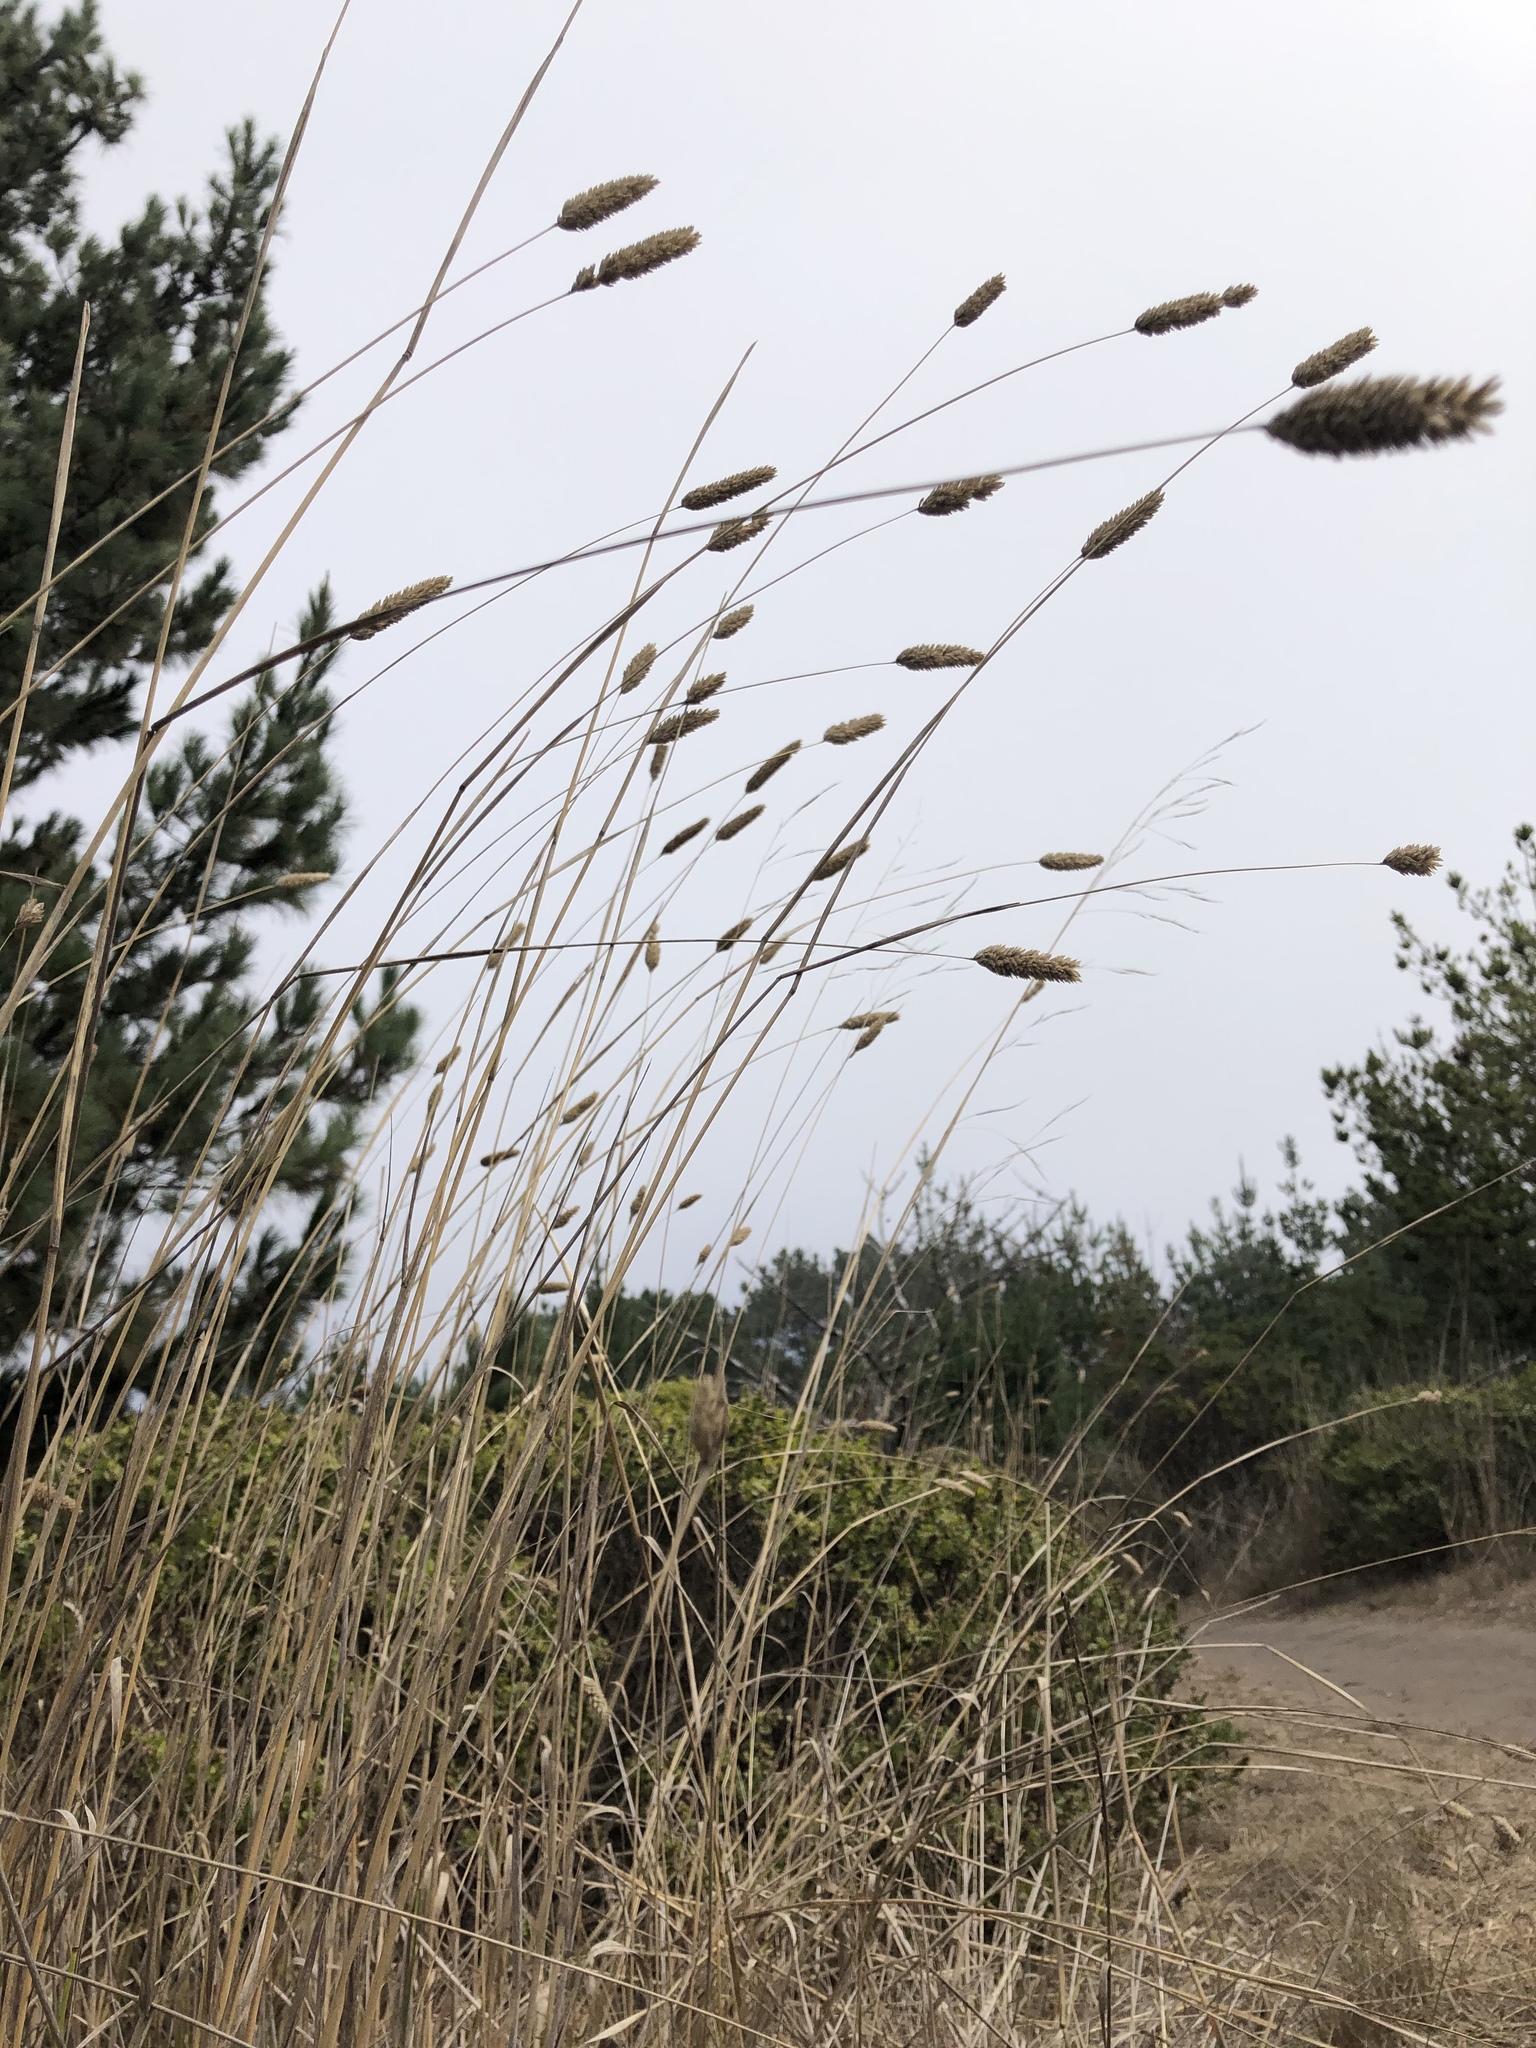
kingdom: Plantae
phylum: Tracheophyta
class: Liliopsida
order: Poales
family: Poaceae
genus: Phalaris
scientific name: Phalaris aquatica
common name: Bulbous canary-grass
